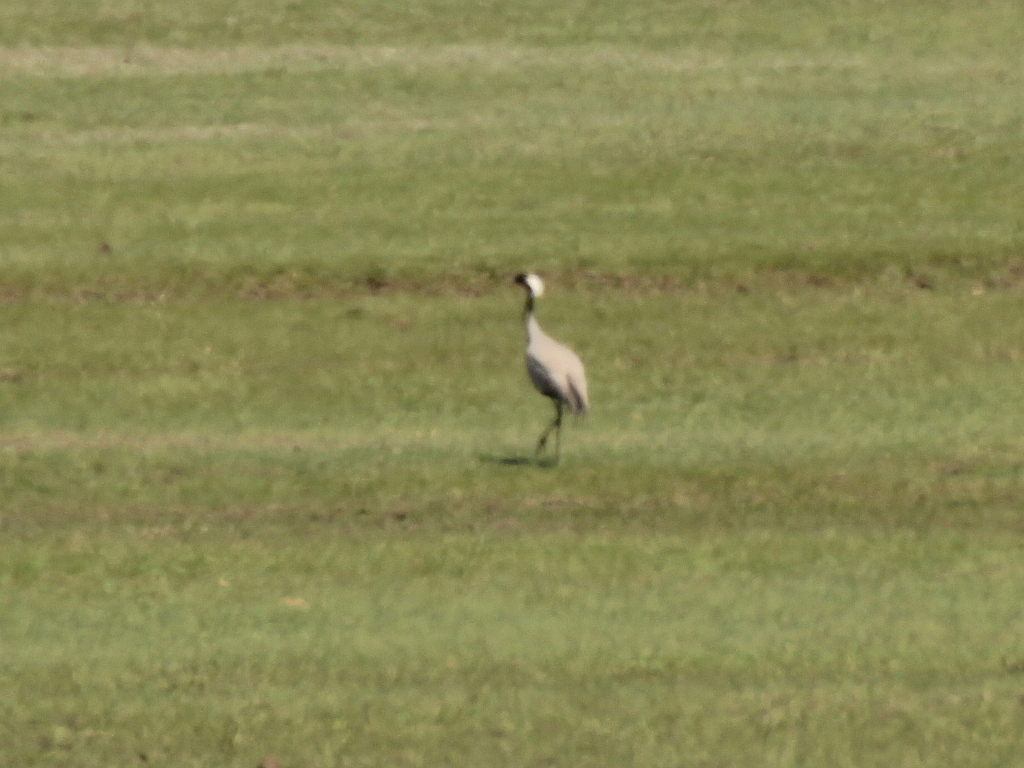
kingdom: Animalia
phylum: Chordata
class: Aves
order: Gruiformes
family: Gruidae
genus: Anthropoides
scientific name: Anthropoides virgo
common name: Demoiselle crane
